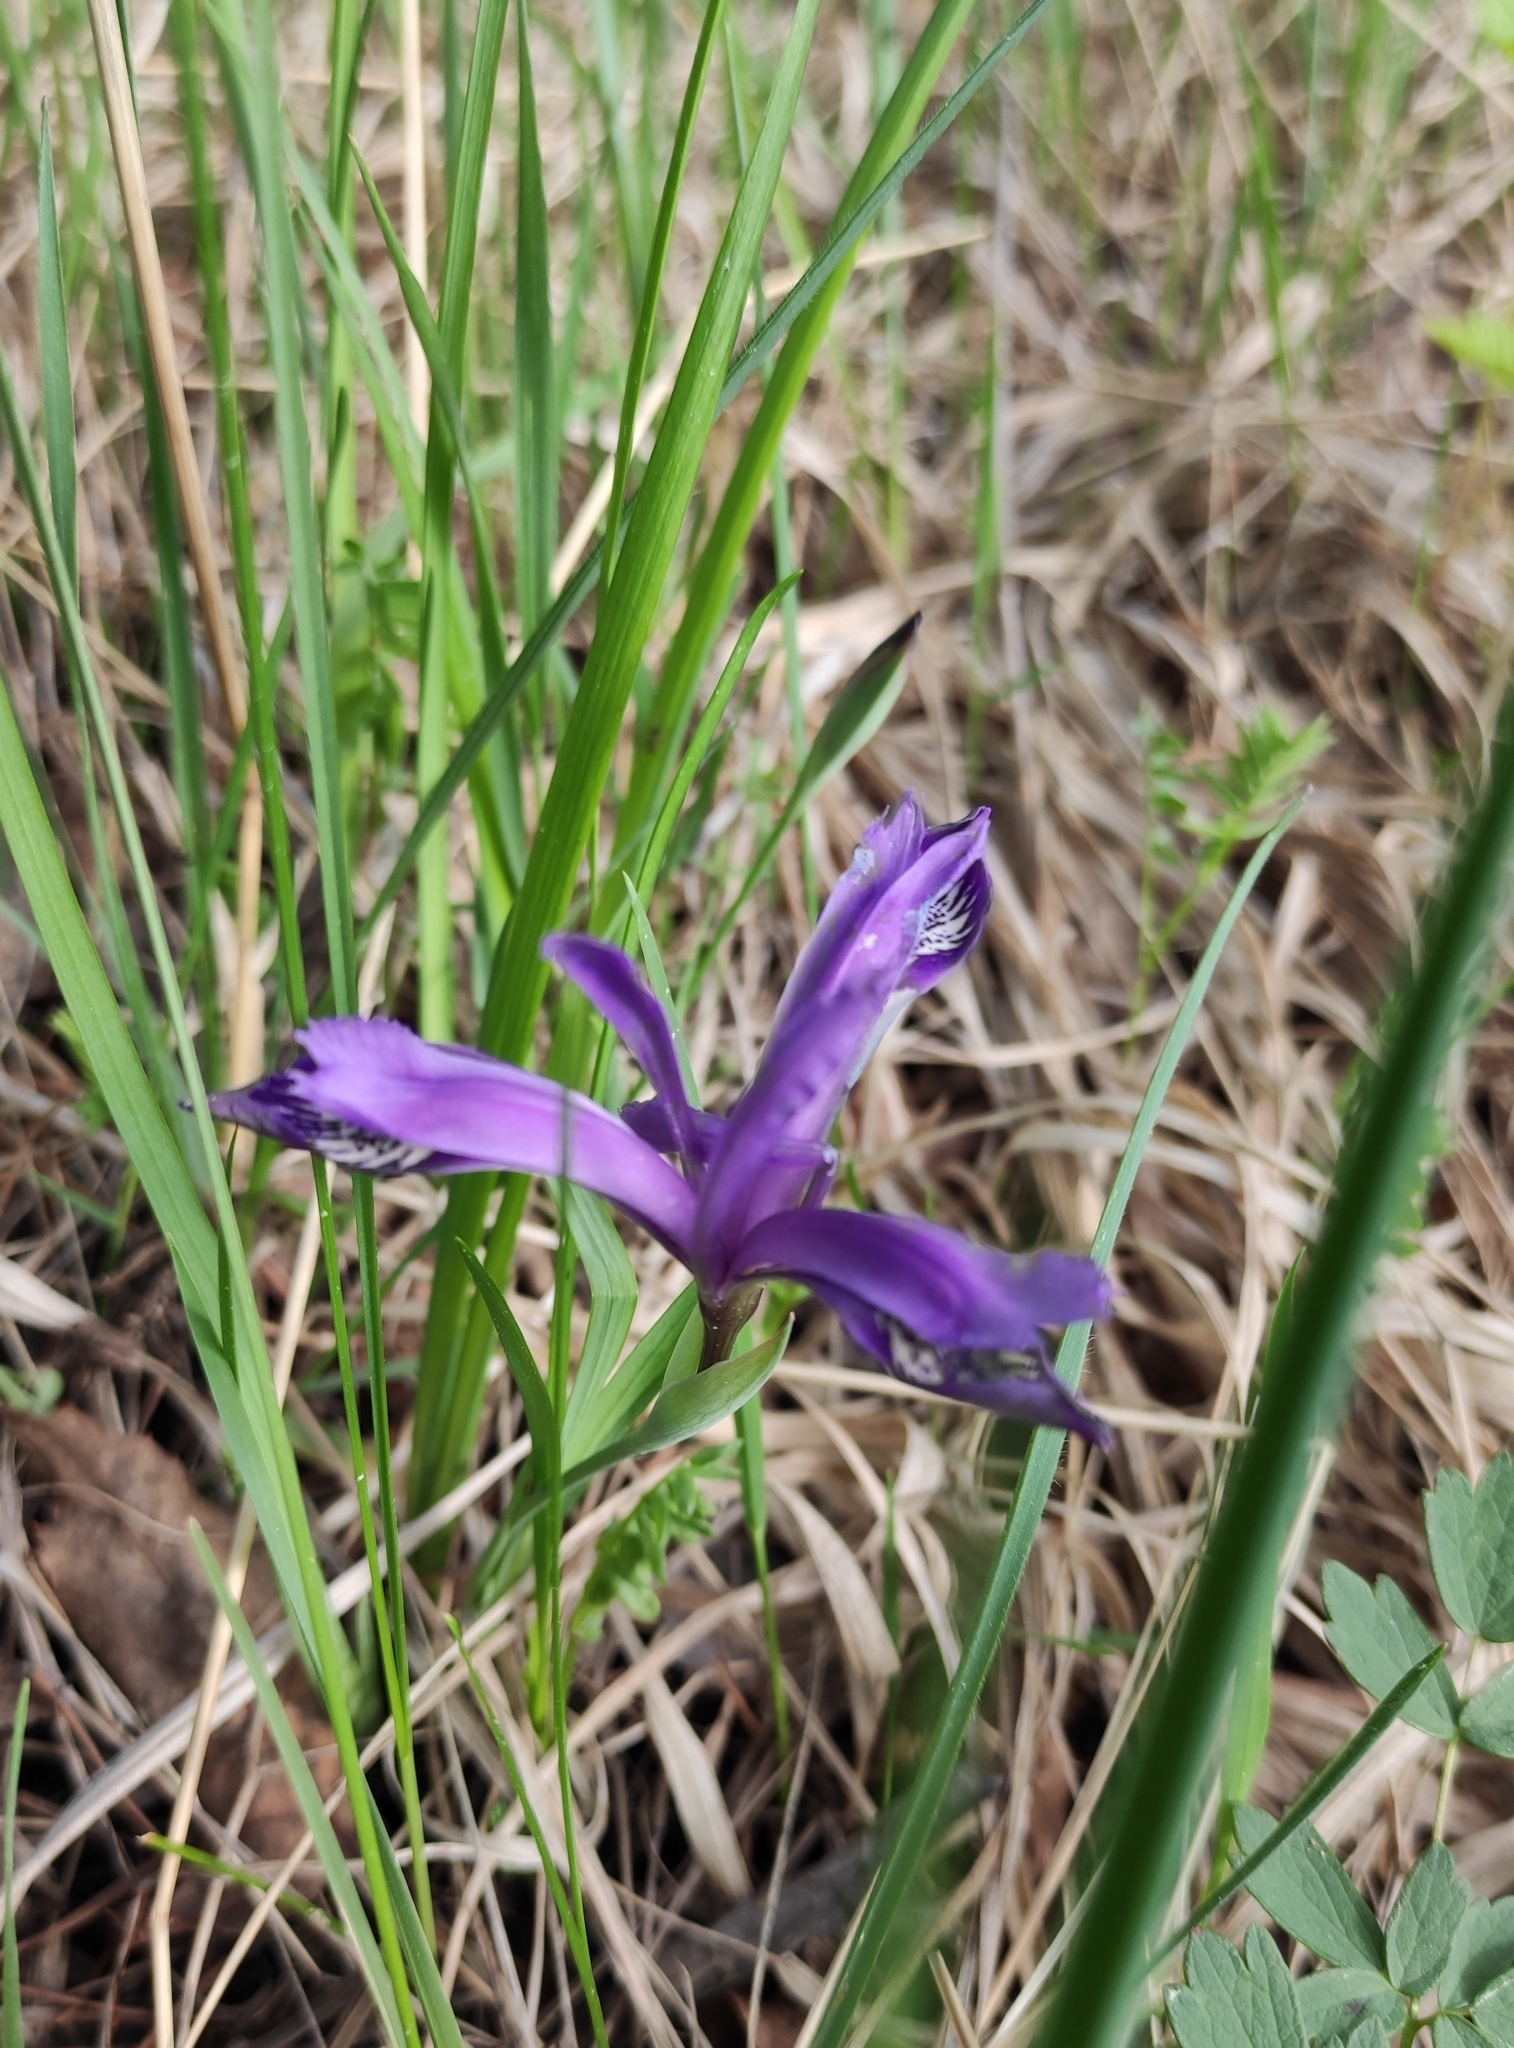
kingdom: Plantae
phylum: Tracheophyta
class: Liliopsida
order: Asparagales
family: Iridaceae
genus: Iris
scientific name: Iris ruthenica
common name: Purple-bract iris
